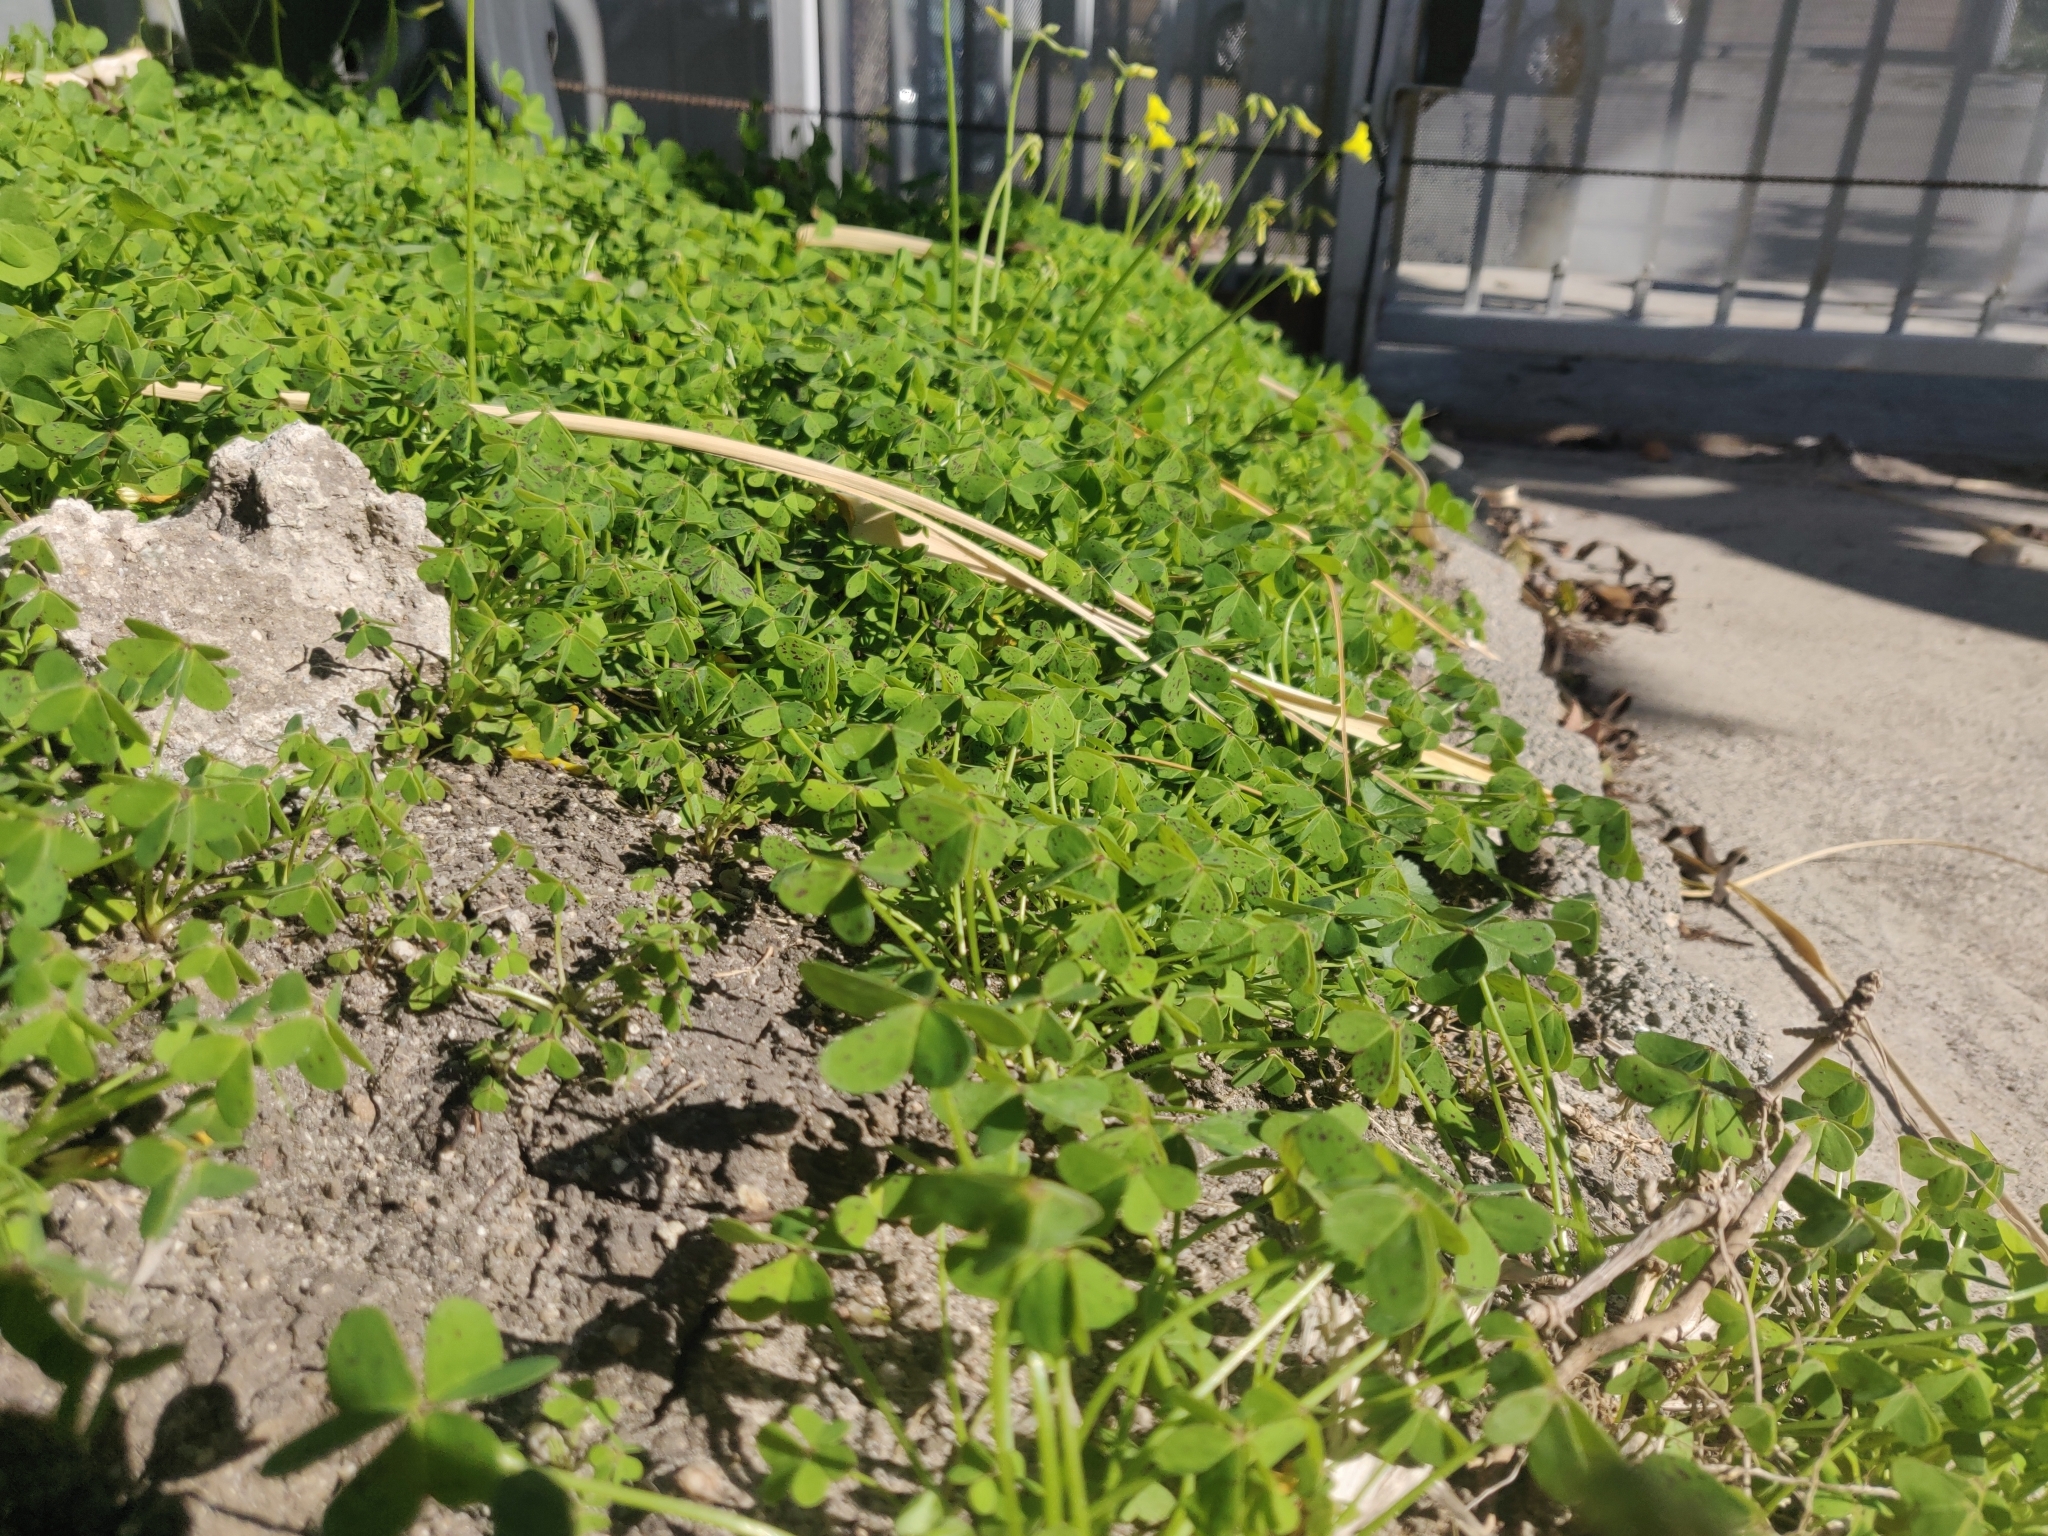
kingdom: Plantae
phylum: Tracheophyta
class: Magnoliopsida
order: Oxalidales
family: Oxalidaceae
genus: Oxalis
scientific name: Oxalis pes-caprae
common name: Bermuda-buttercup
